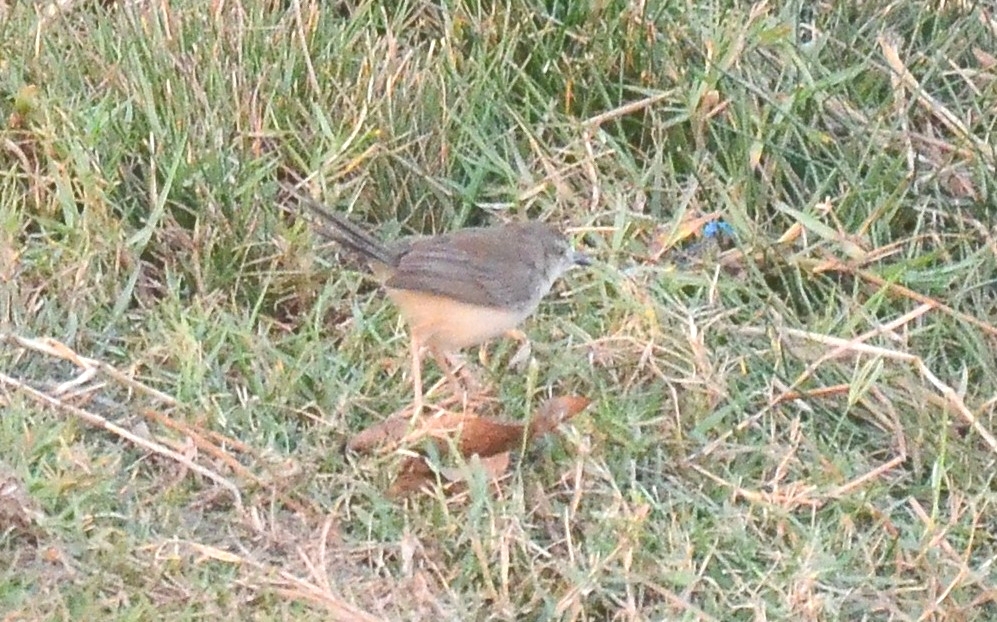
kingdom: Animalia
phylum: Chordata
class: Aves
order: Passeriformes
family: Cisticolidae
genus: Prinia
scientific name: Prinia inornata
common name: Plain prinia
